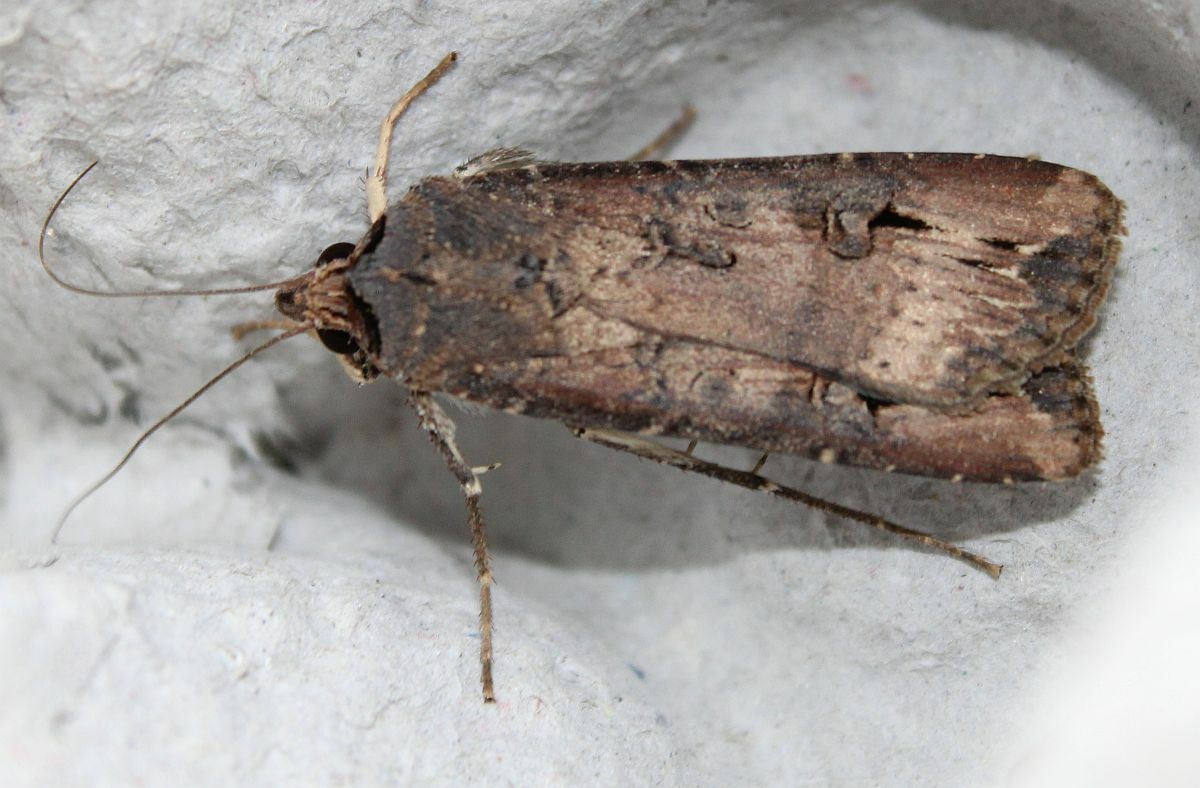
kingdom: Animalia
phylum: Arthropoda
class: Insecta
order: Lepidoptera
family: Noctuidae
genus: Agrotis
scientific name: Agrotis ipsilon
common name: Dark sword-grass
